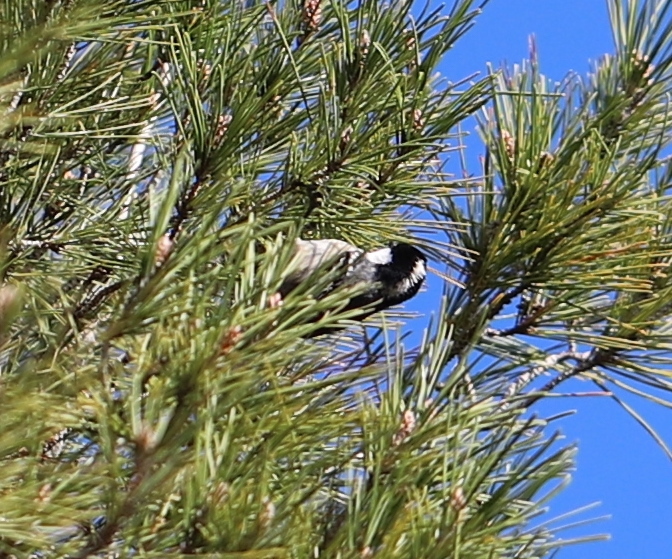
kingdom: Animalia
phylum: Chordata
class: Aves
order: Passeriformes
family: Paridae
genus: Periparus
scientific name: Periparus ater
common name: Coal tit
